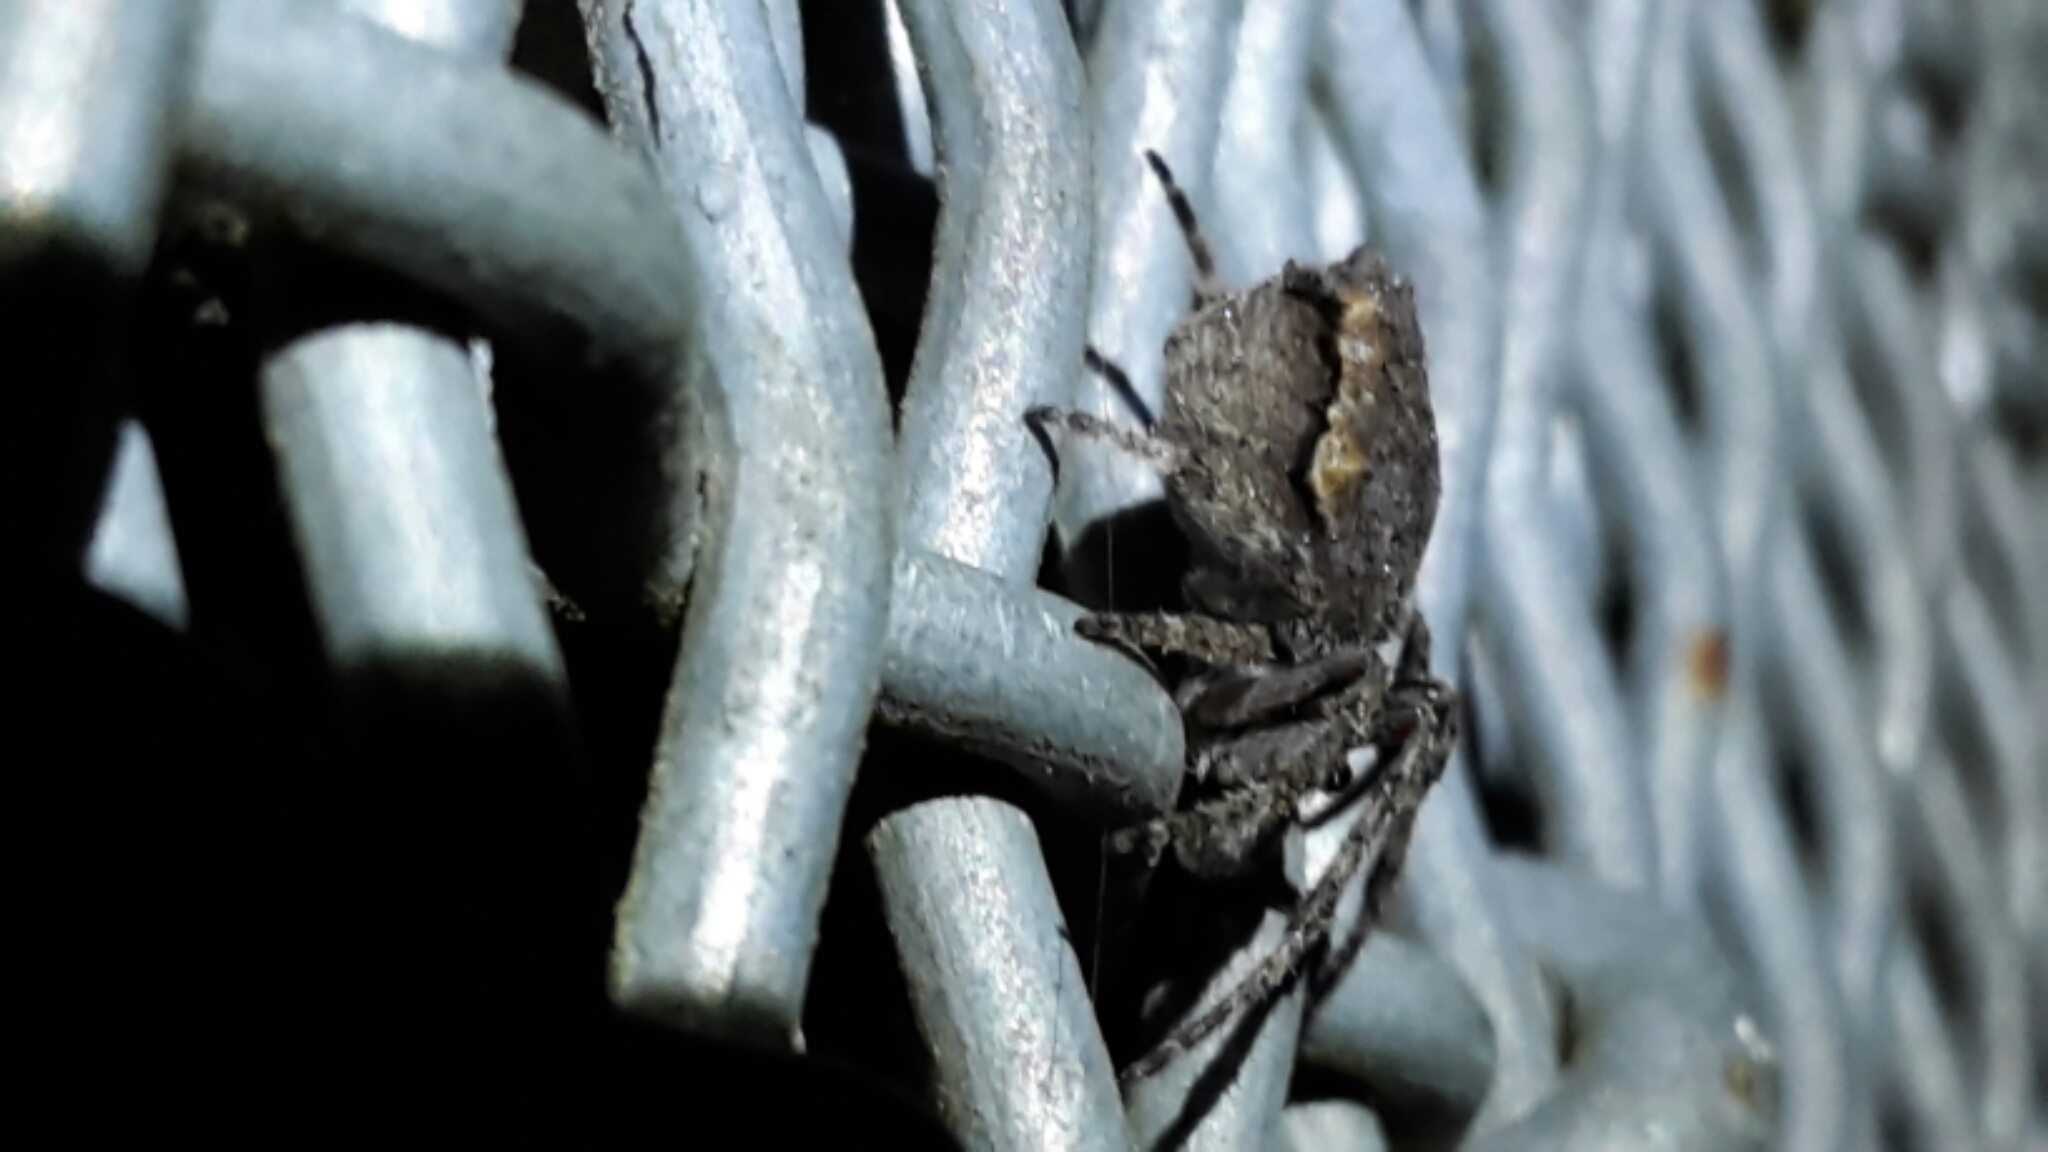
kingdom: Animalia
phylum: Arthropoda
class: Arachnida
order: Araneae
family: Araneidae
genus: Eriophora
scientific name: Eriophora pustulosa
